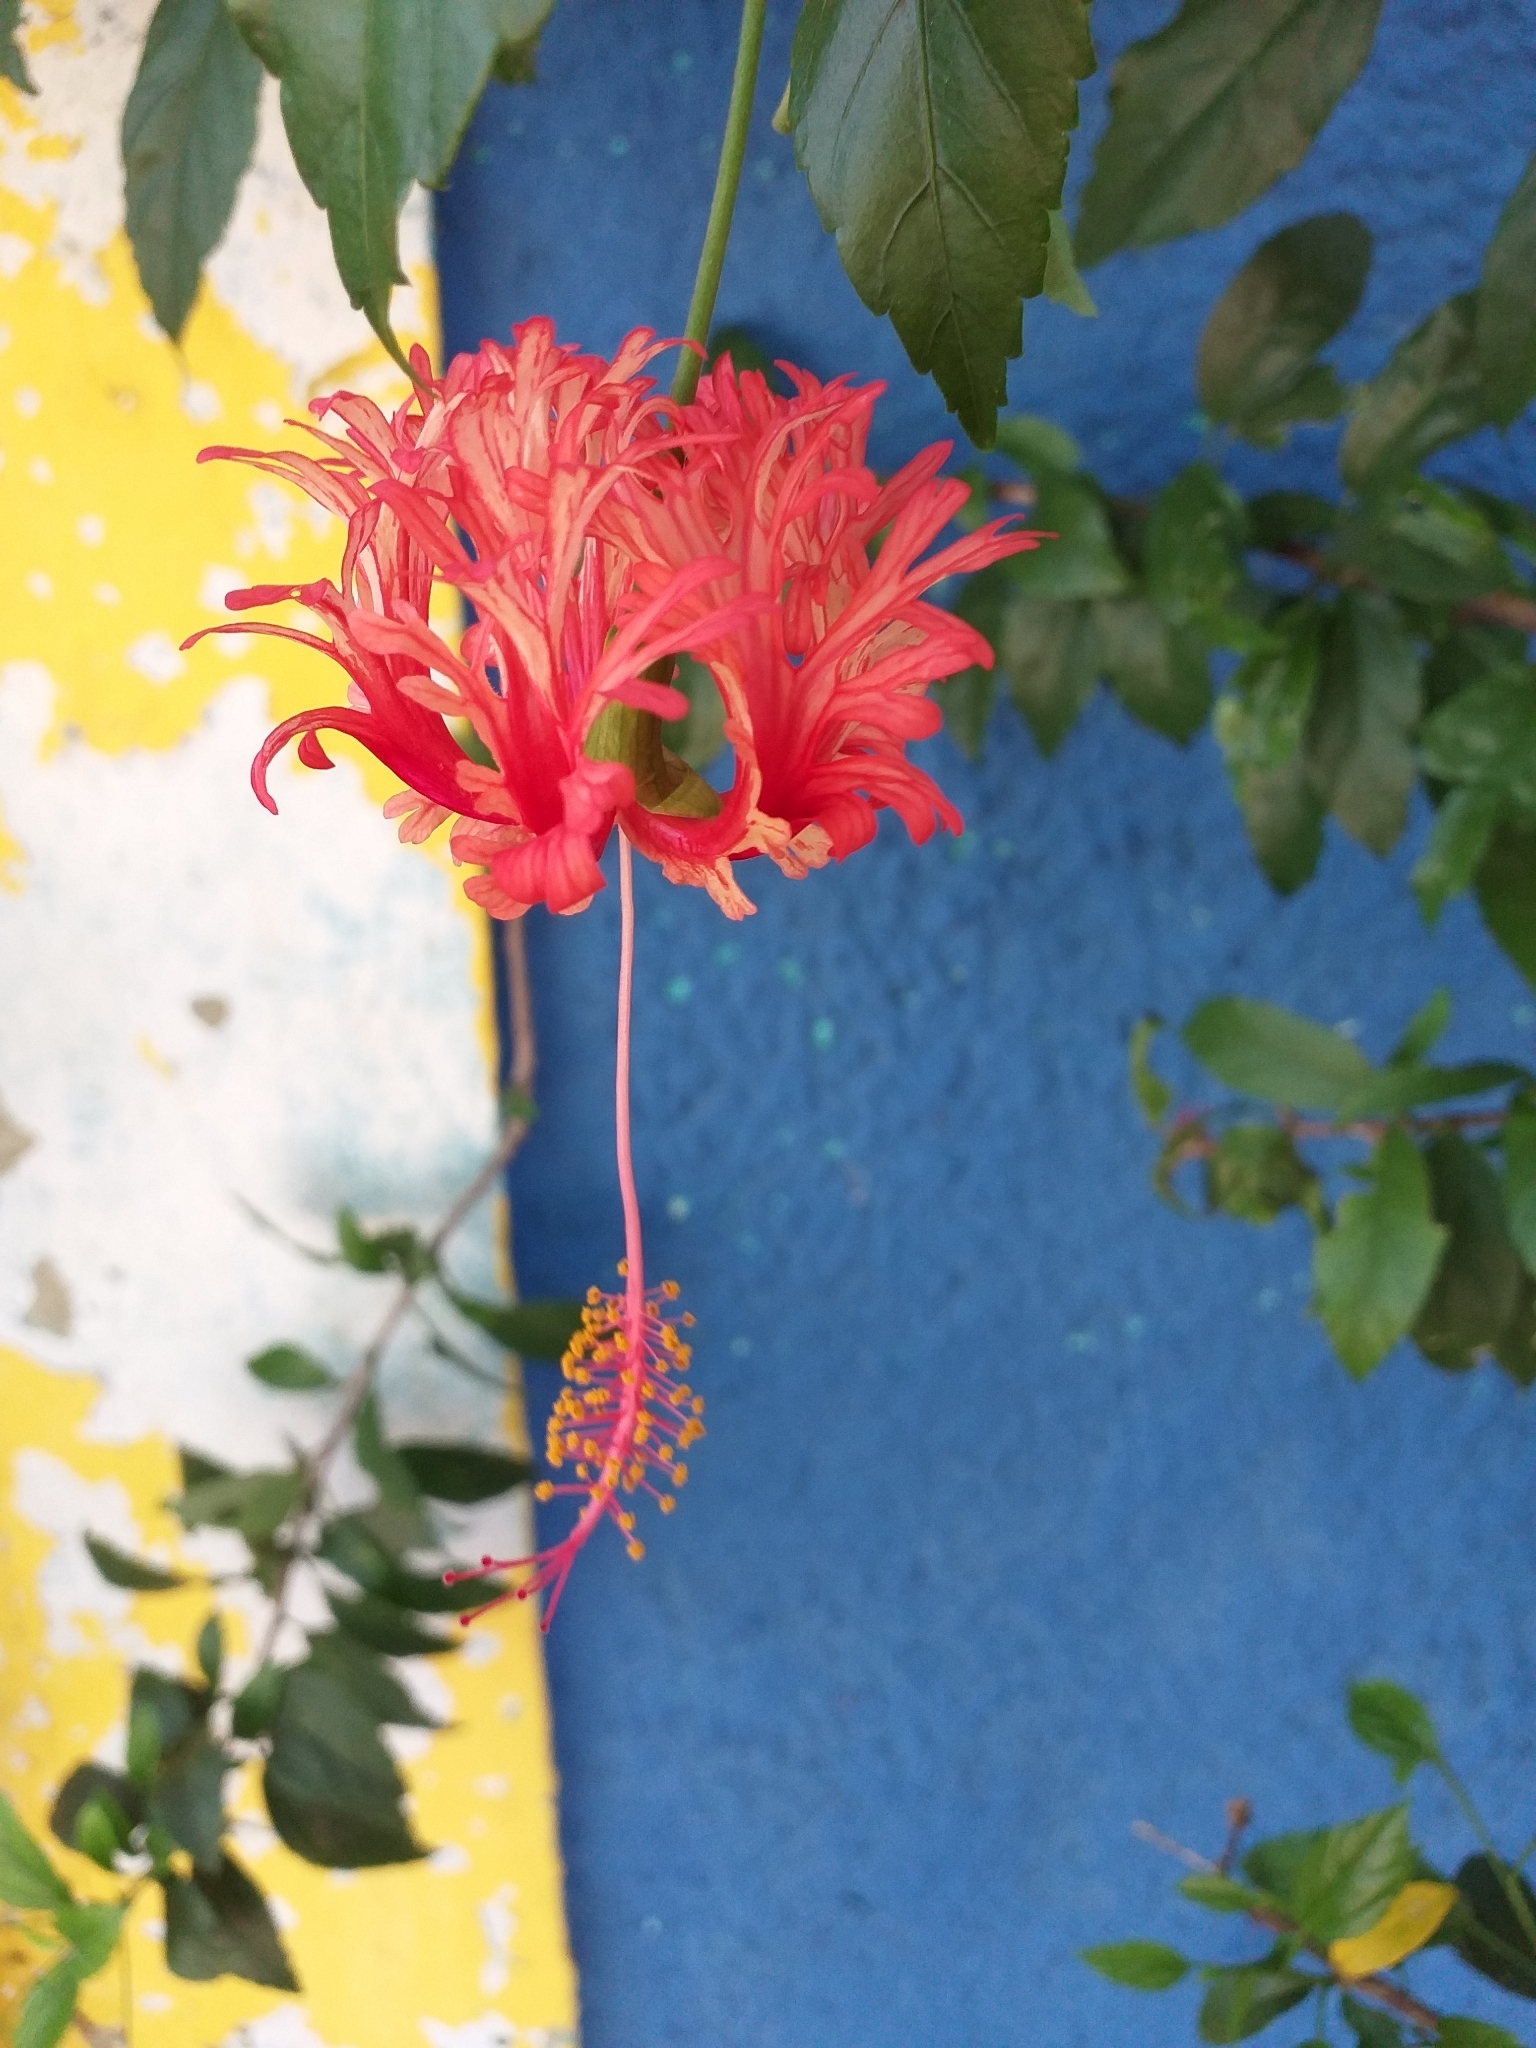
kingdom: Plantae
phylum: Tracheophyta
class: Magnoliopsida
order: Malvales
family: Malvaceae
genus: Hibiscus
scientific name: Hibiscus schizopetalus
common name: Fringed rosemallow
